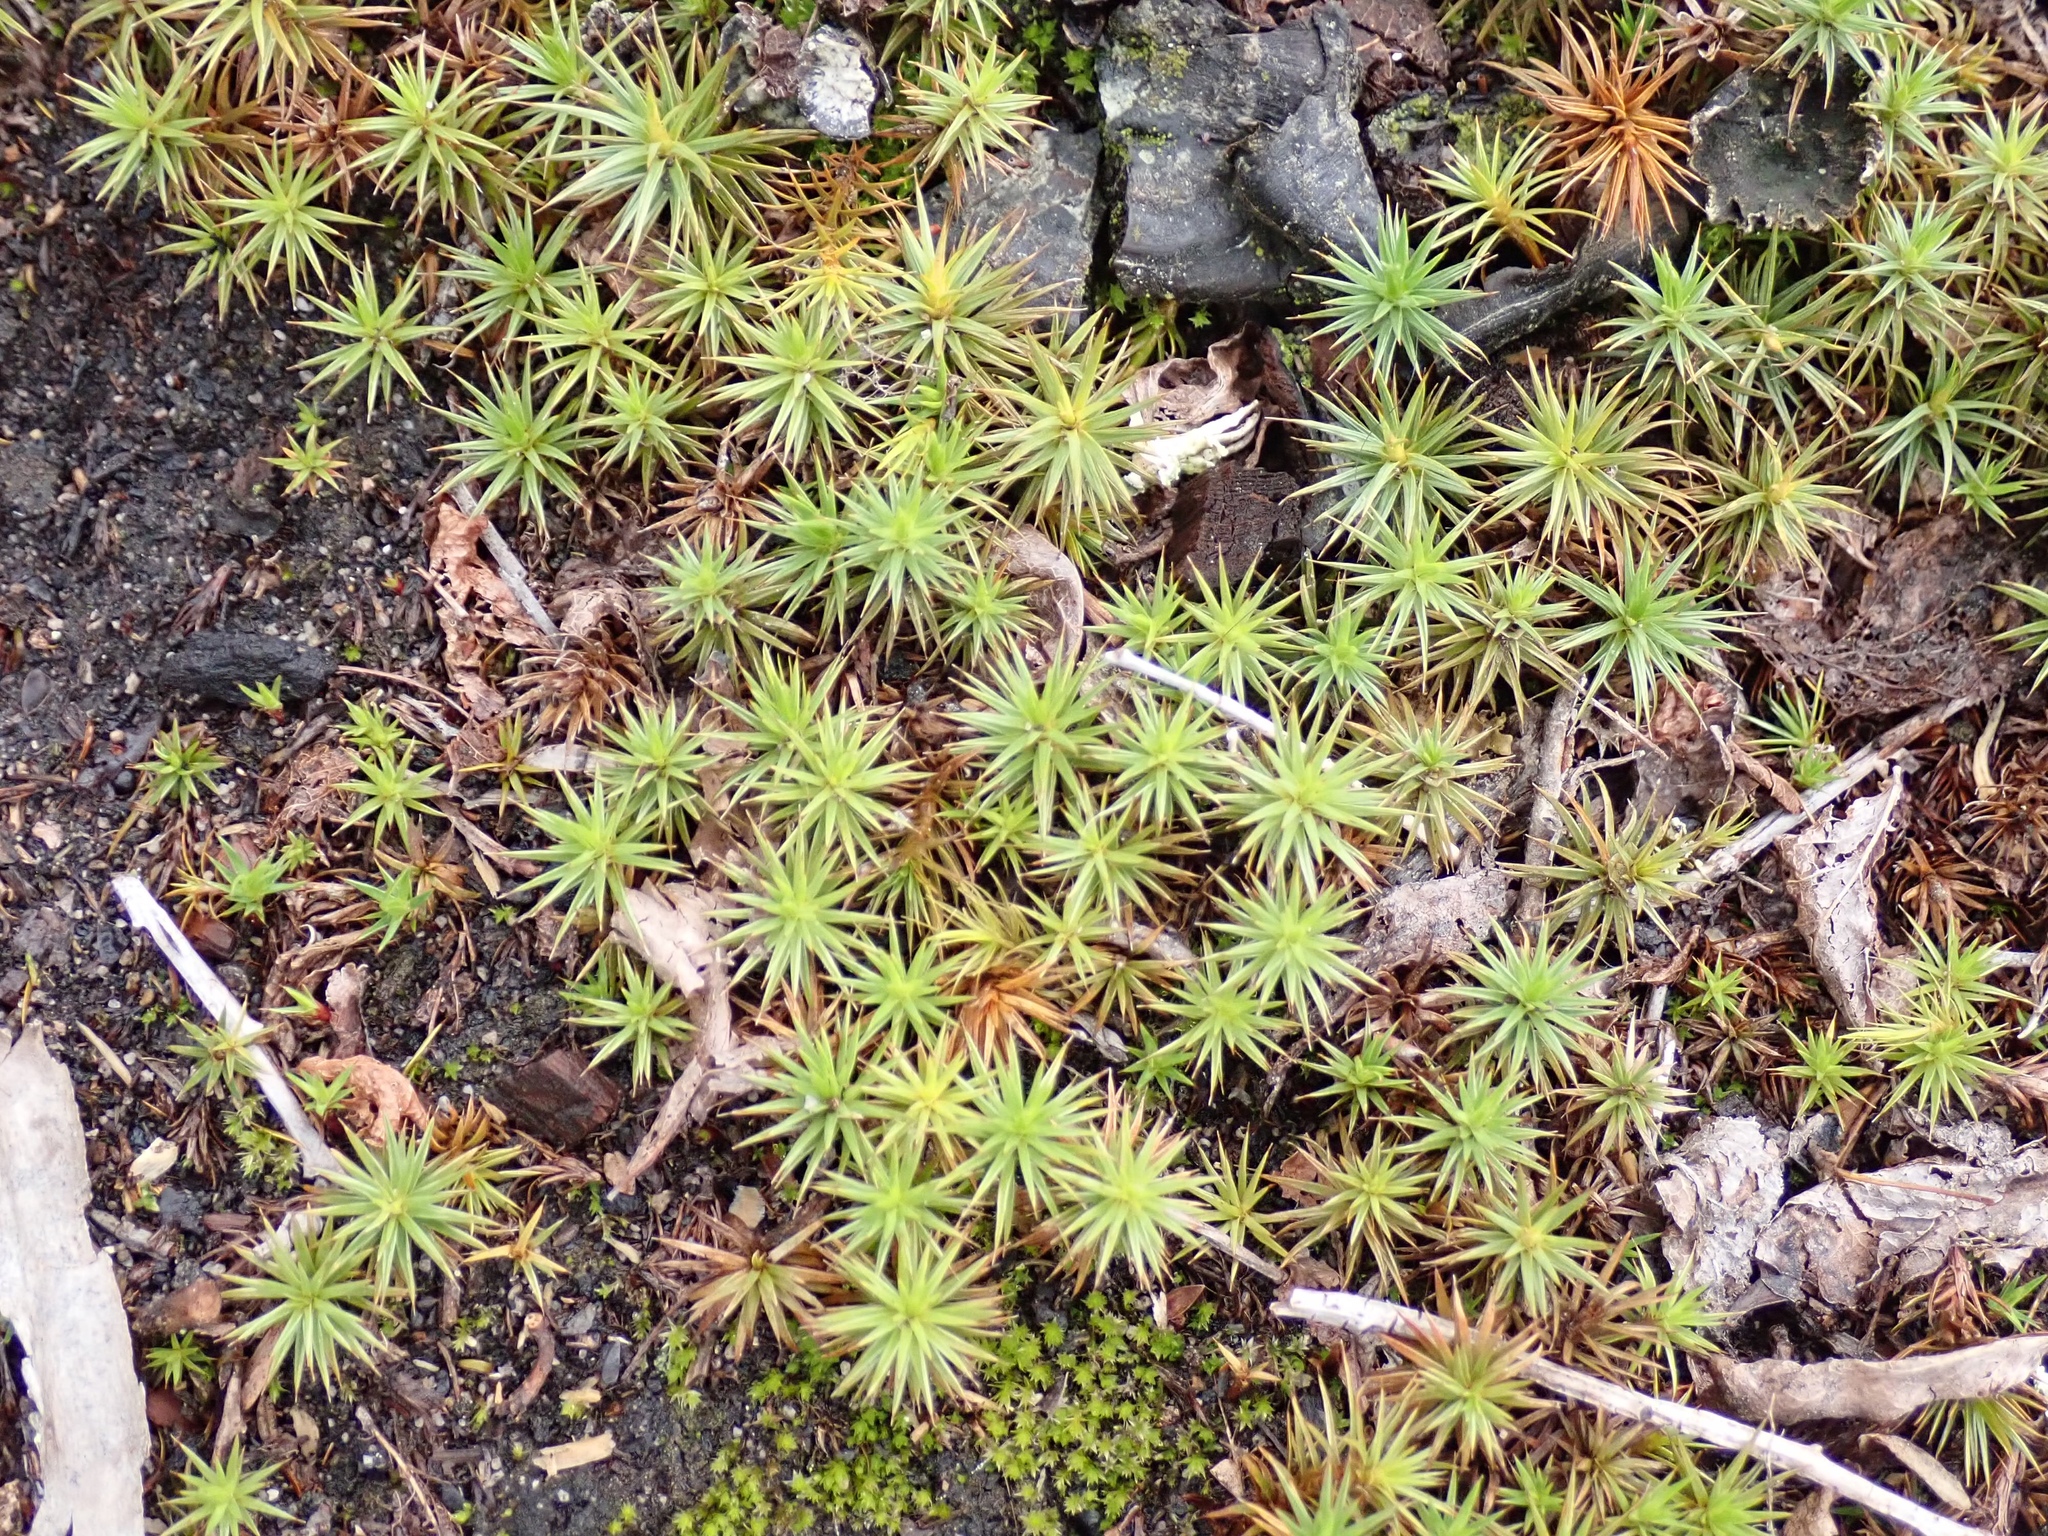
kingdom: Plantae
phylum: Bryophyta
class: Polytrichopsida
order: Polytrichales
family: Polytrichaceae
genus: Polytrichum
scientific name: Polytrichum juniperinum
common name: Juniper haircap moss
